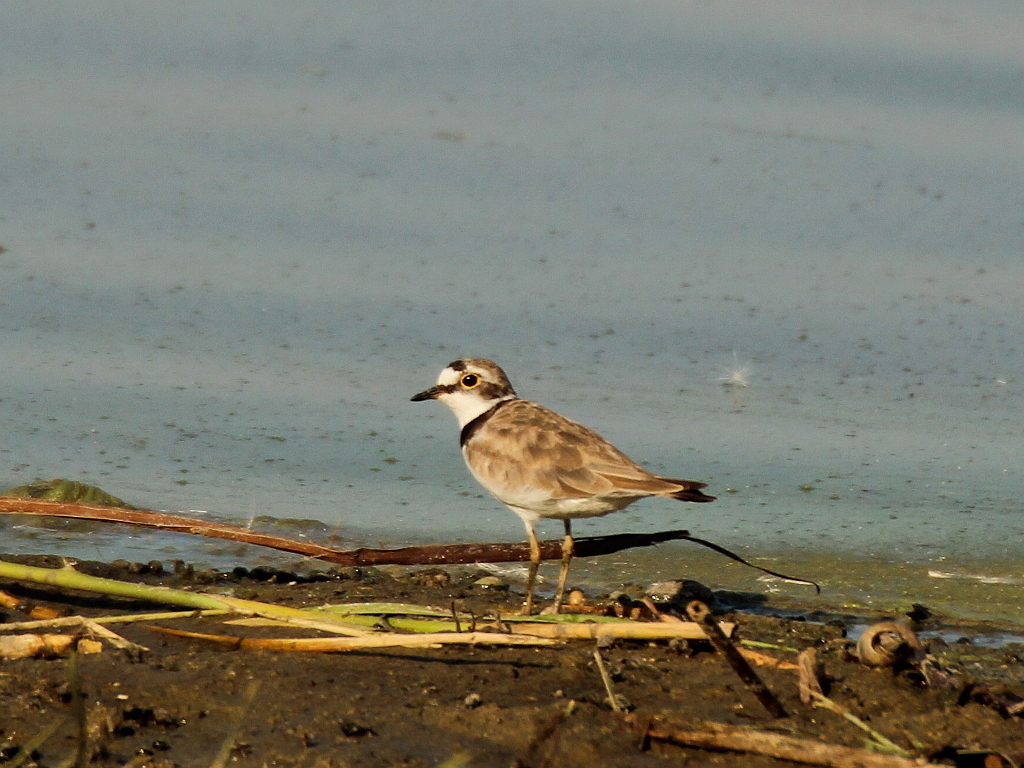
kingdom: Animalia
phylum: Chordata
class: Aves
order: Charadriiformes
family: Charadriidae
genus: Charadrius
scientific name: Charadrius dubius
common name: Little ringed plover
